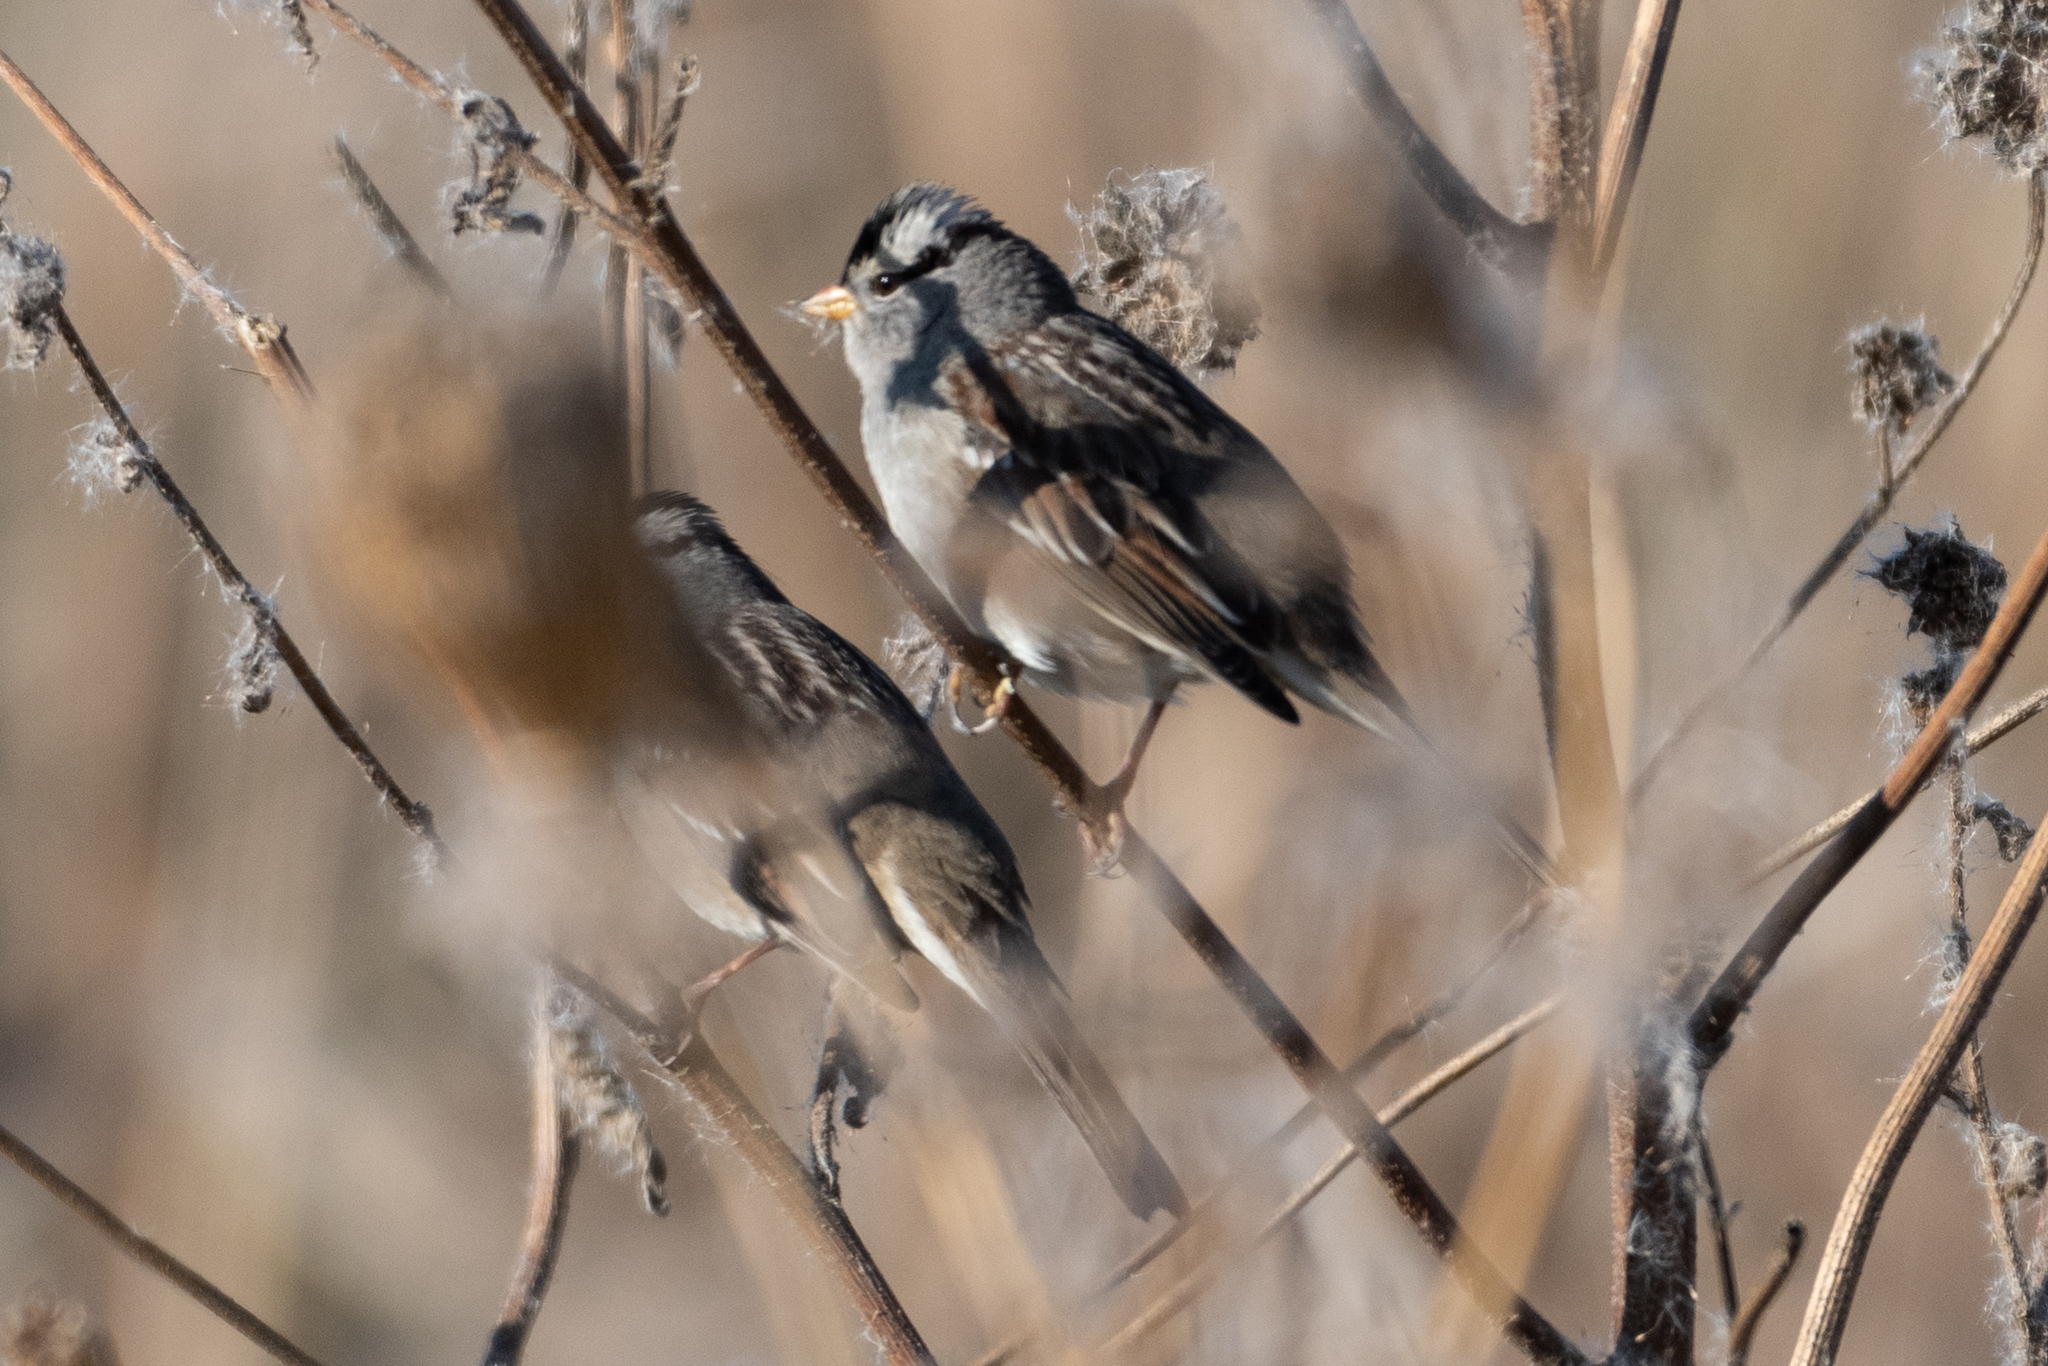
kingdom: Animalia
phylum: Chordata
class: Aves
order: Passeriformes
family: Passerellidae
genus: Zonotrichia
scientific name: Zonotrichia leucophrys
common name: White-crowned sparrow
